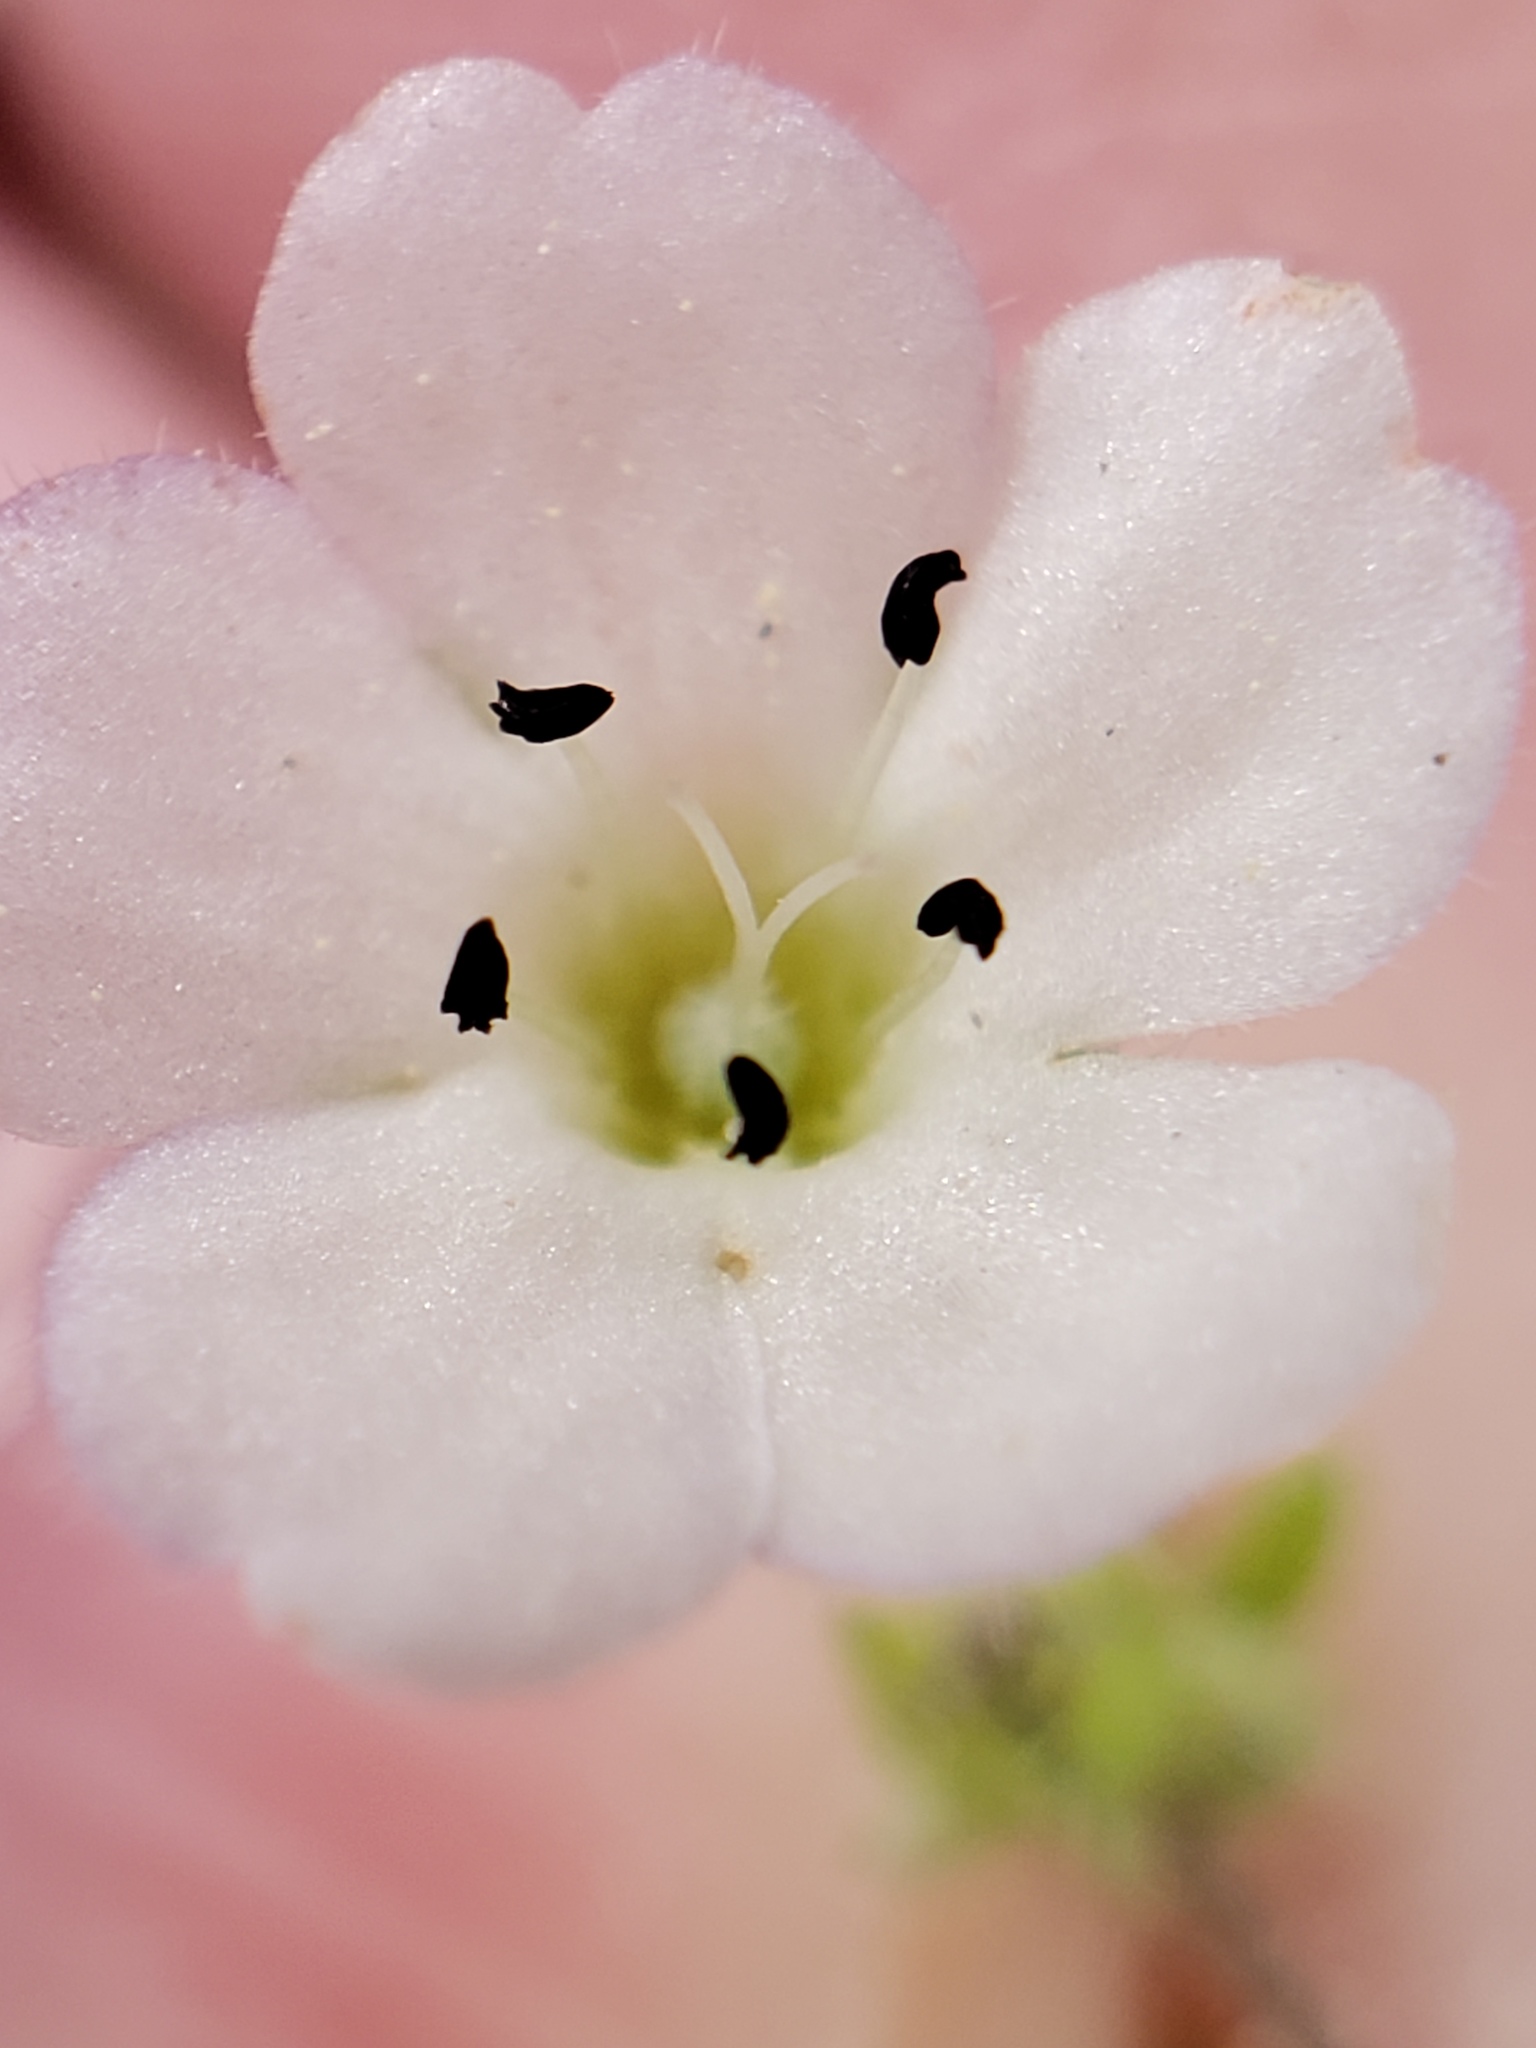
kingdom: Plantae
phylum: Tracheophyta
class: Magnoliopsida
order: Boraginales
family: Hydrophyllaceae
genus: Nemophila
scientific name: Nemophila heterophylla
